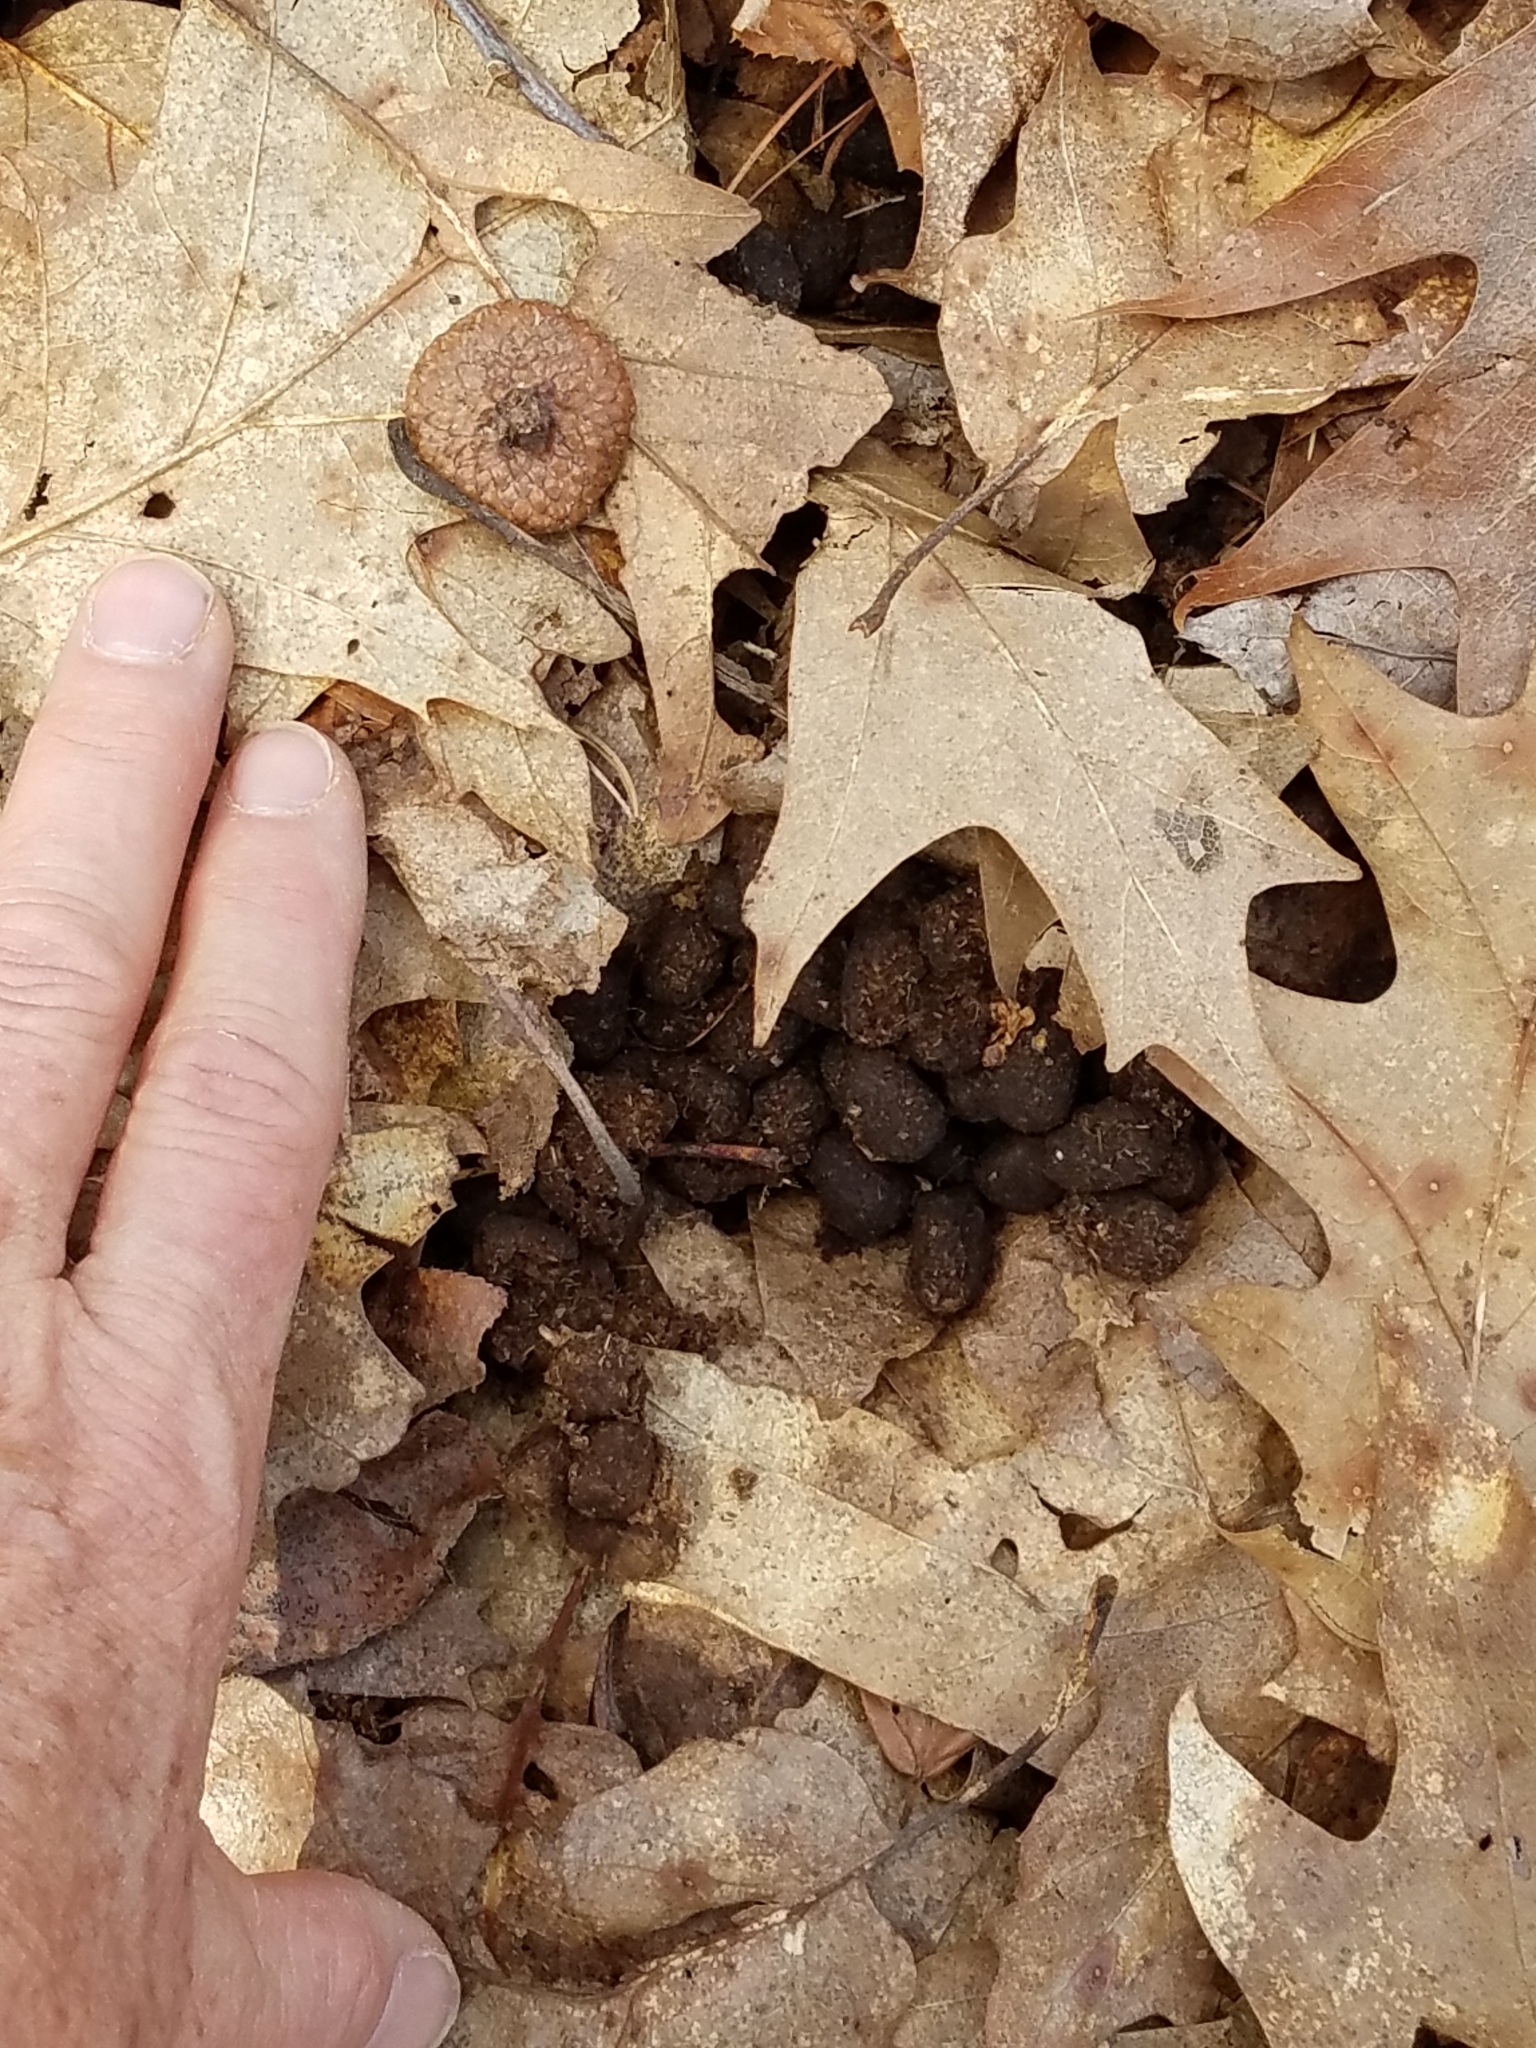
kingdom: Animalia
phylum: Chordata
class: Mammalia
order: Artiodactyla
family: Cervidae
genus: Odocoileus
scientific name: Odocoileus virginianus
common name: White-tailed deer
